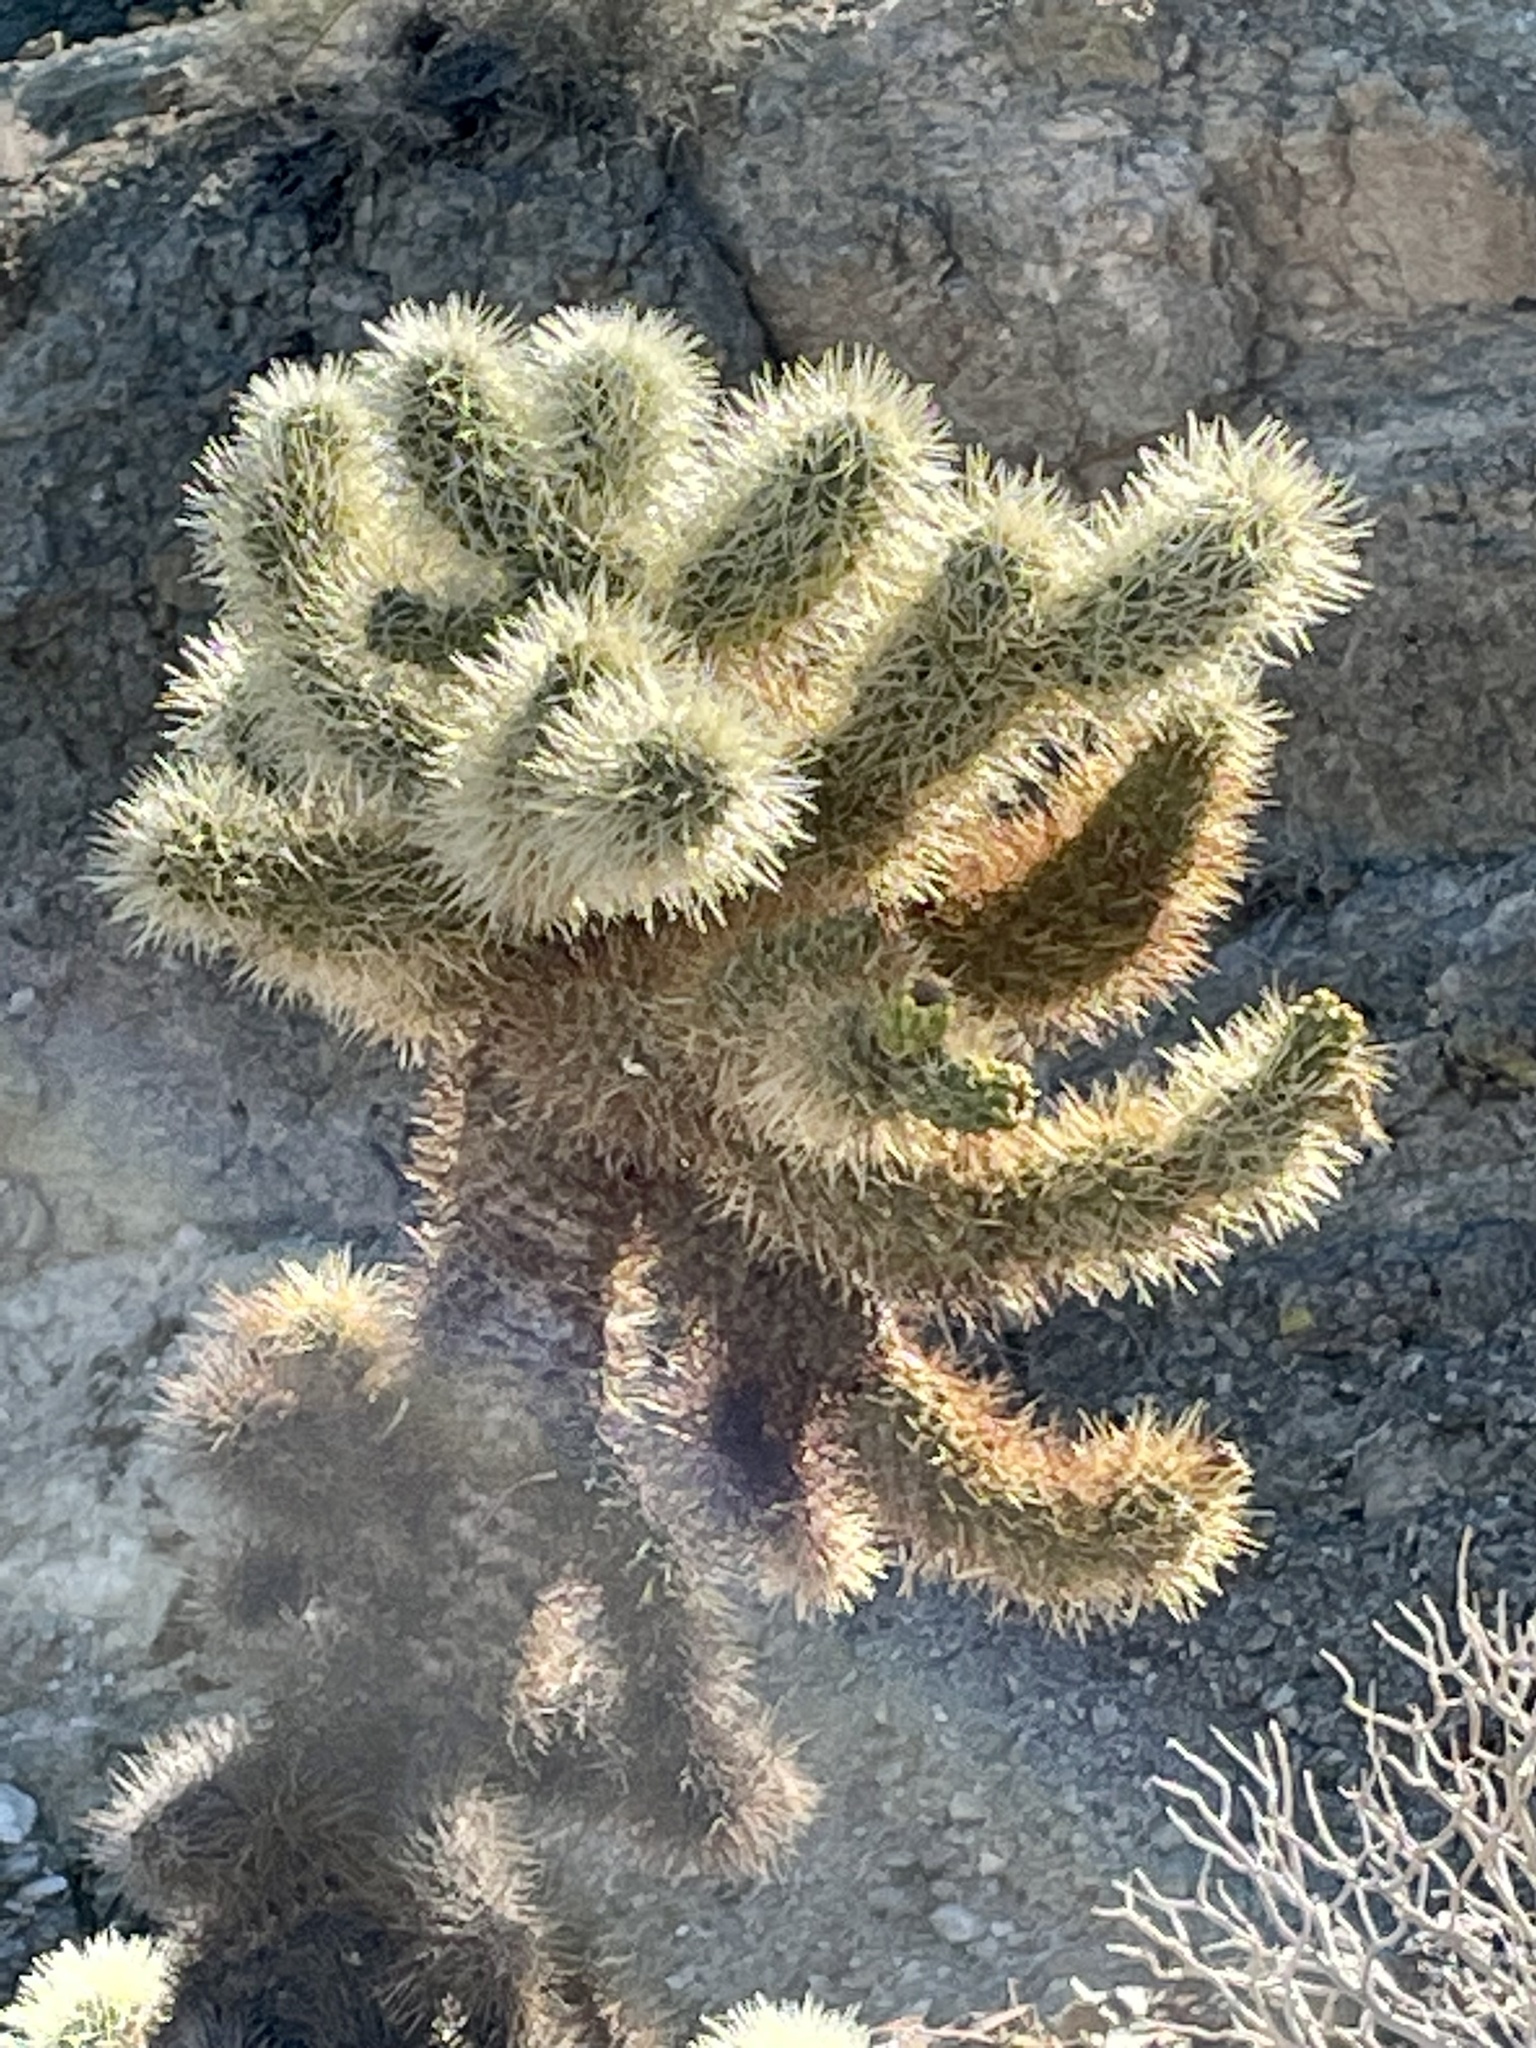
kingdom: Plantae
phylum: Tracheophyta
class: Magnoliopsida
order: Caryophyllales
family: Cactaceae
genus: Cylindropuntia
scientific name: Cylindropuntia fosbergii
